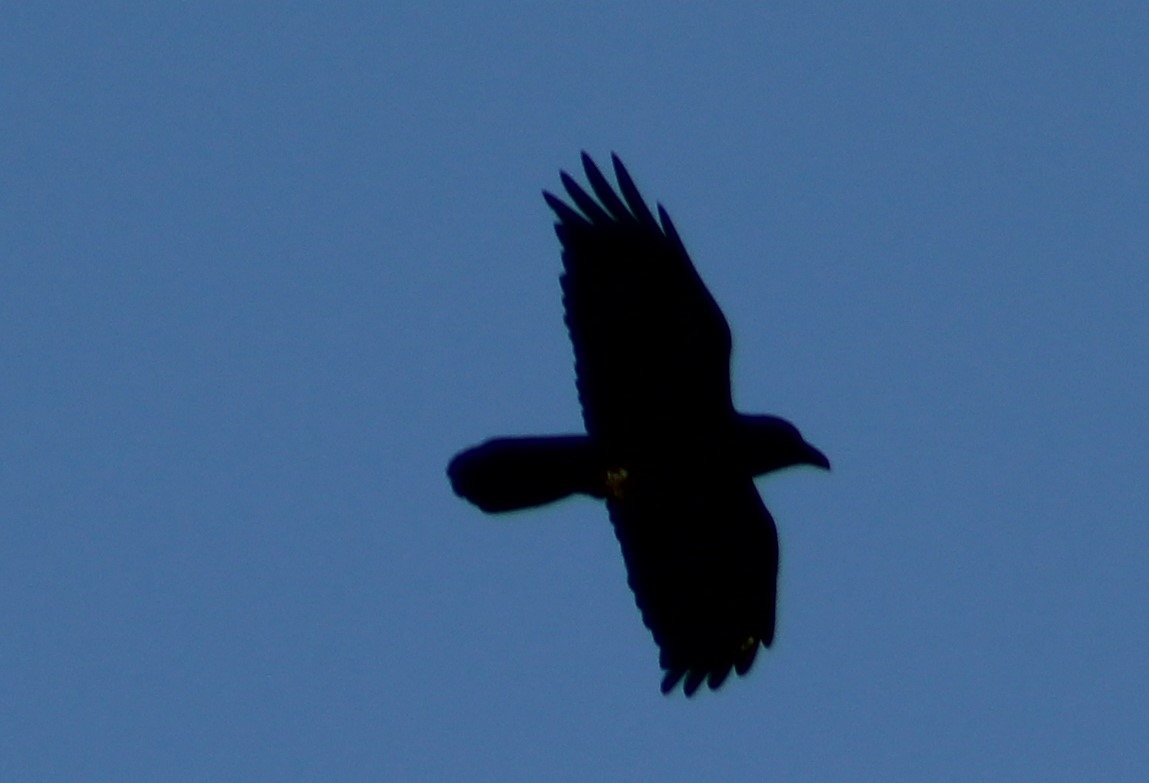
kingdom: Animalia
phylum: Chordata
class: Aves
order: Passeriformes
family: Corvidae
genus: Corvus
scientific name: Corvus corax
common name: Common raven
